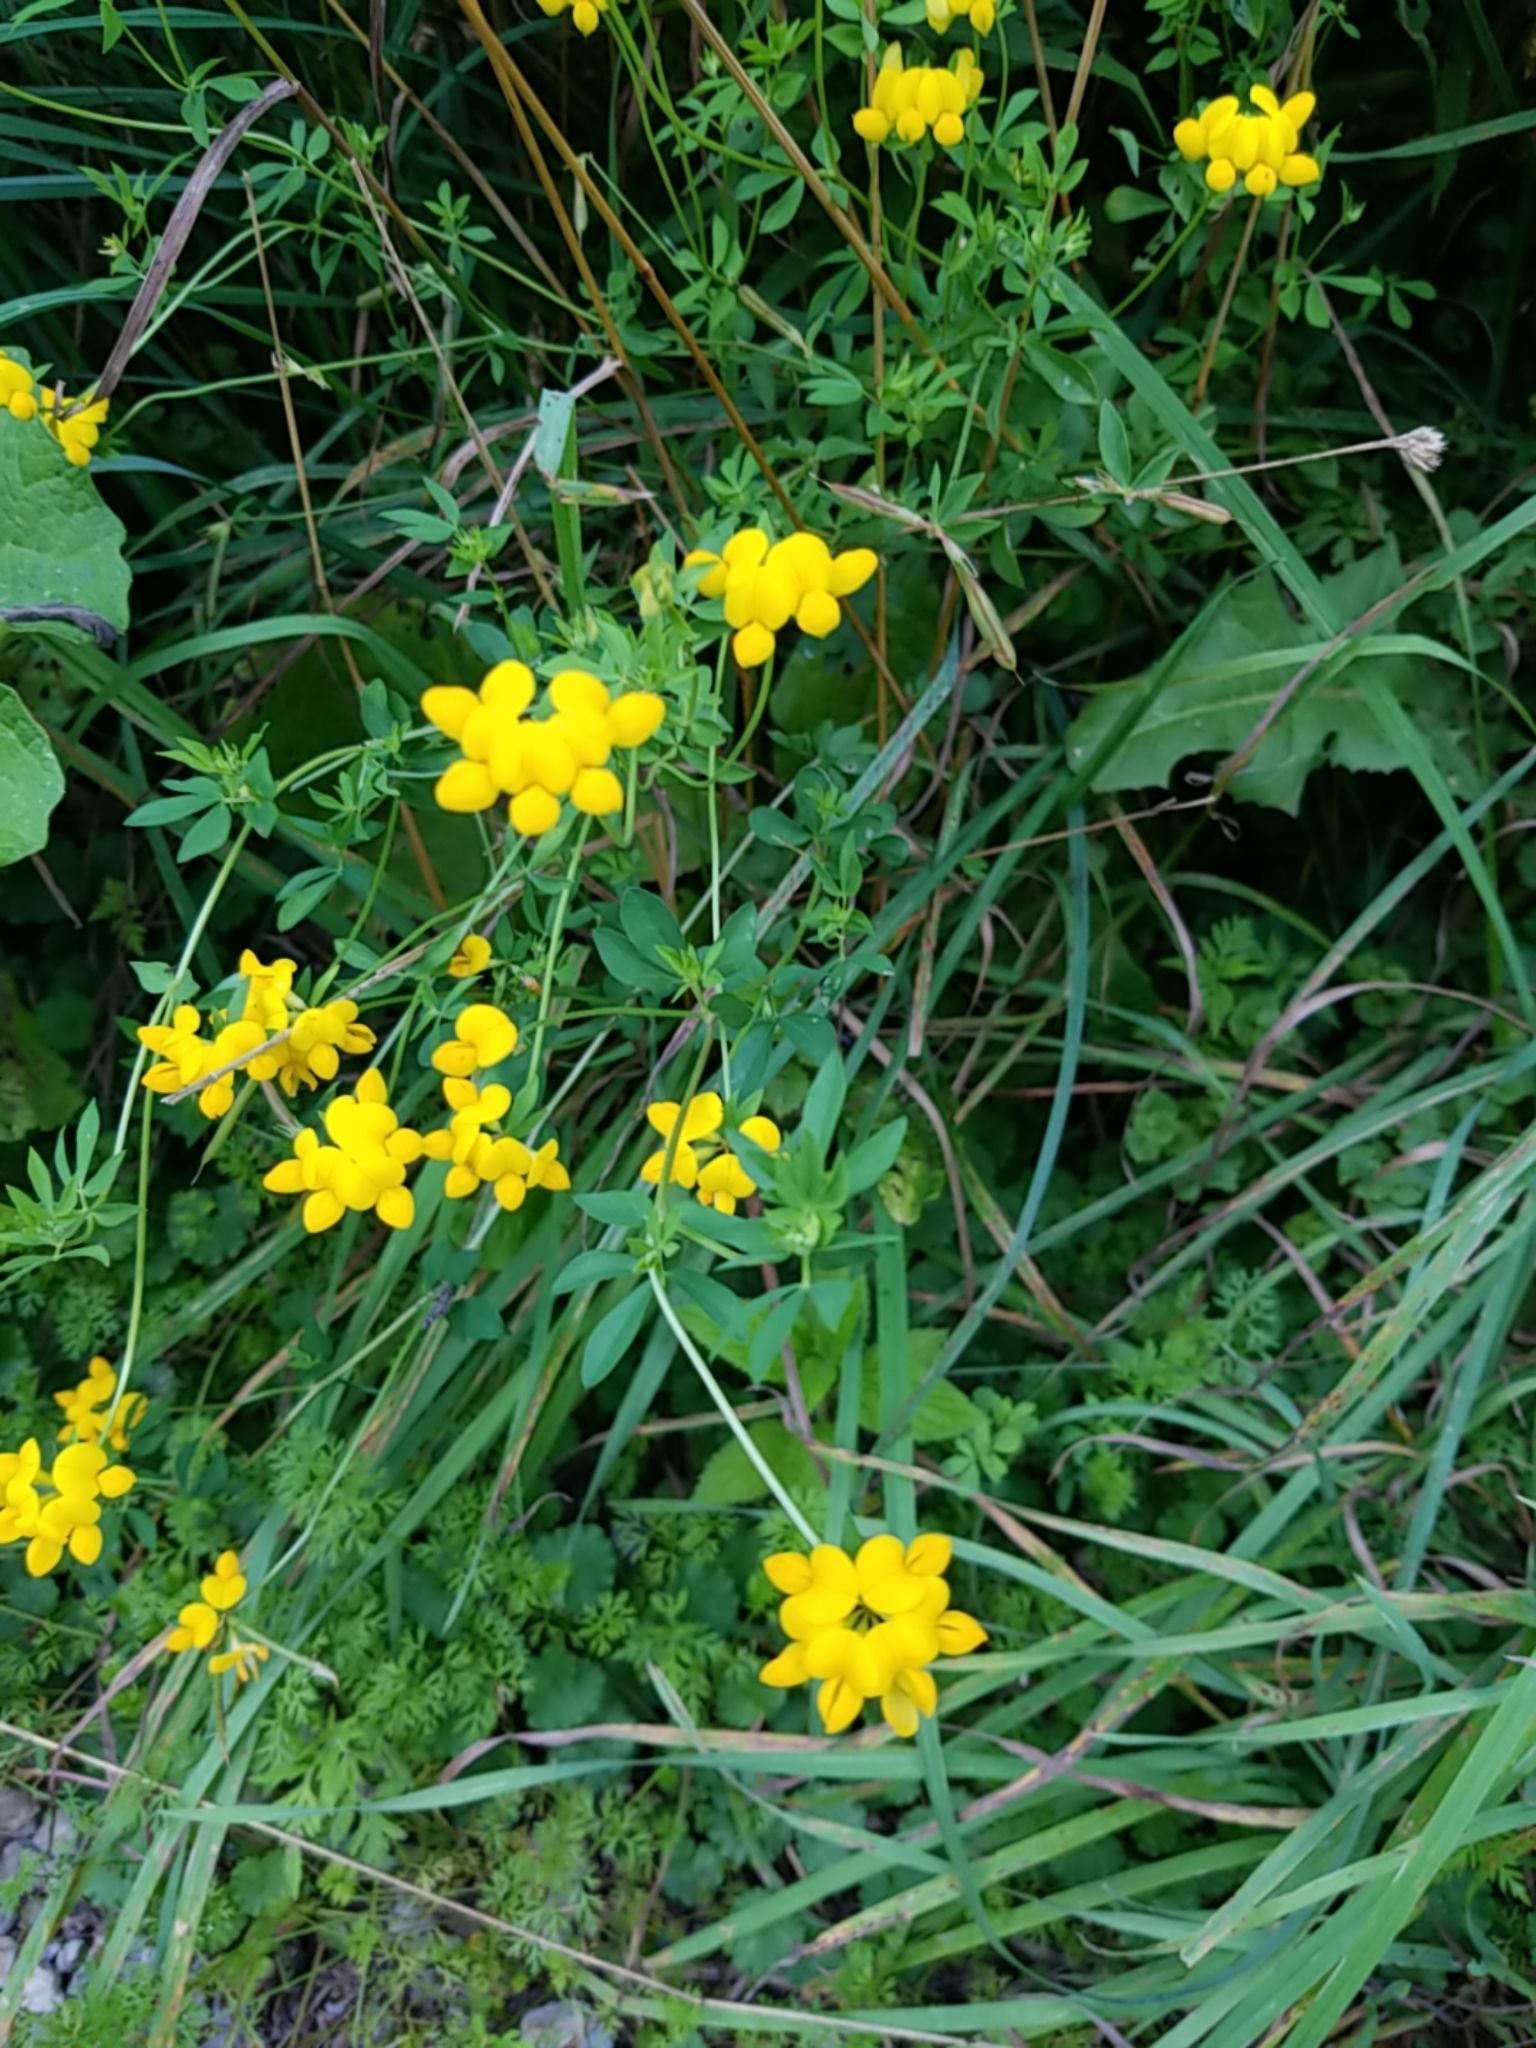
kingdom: Plantae
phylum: Tracheophyta
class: Magnoliopsida
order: Fabales
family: Fabaceae
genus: Lotus
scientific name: Lotus corniculatus
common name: Common bird's-foot-trefoil
